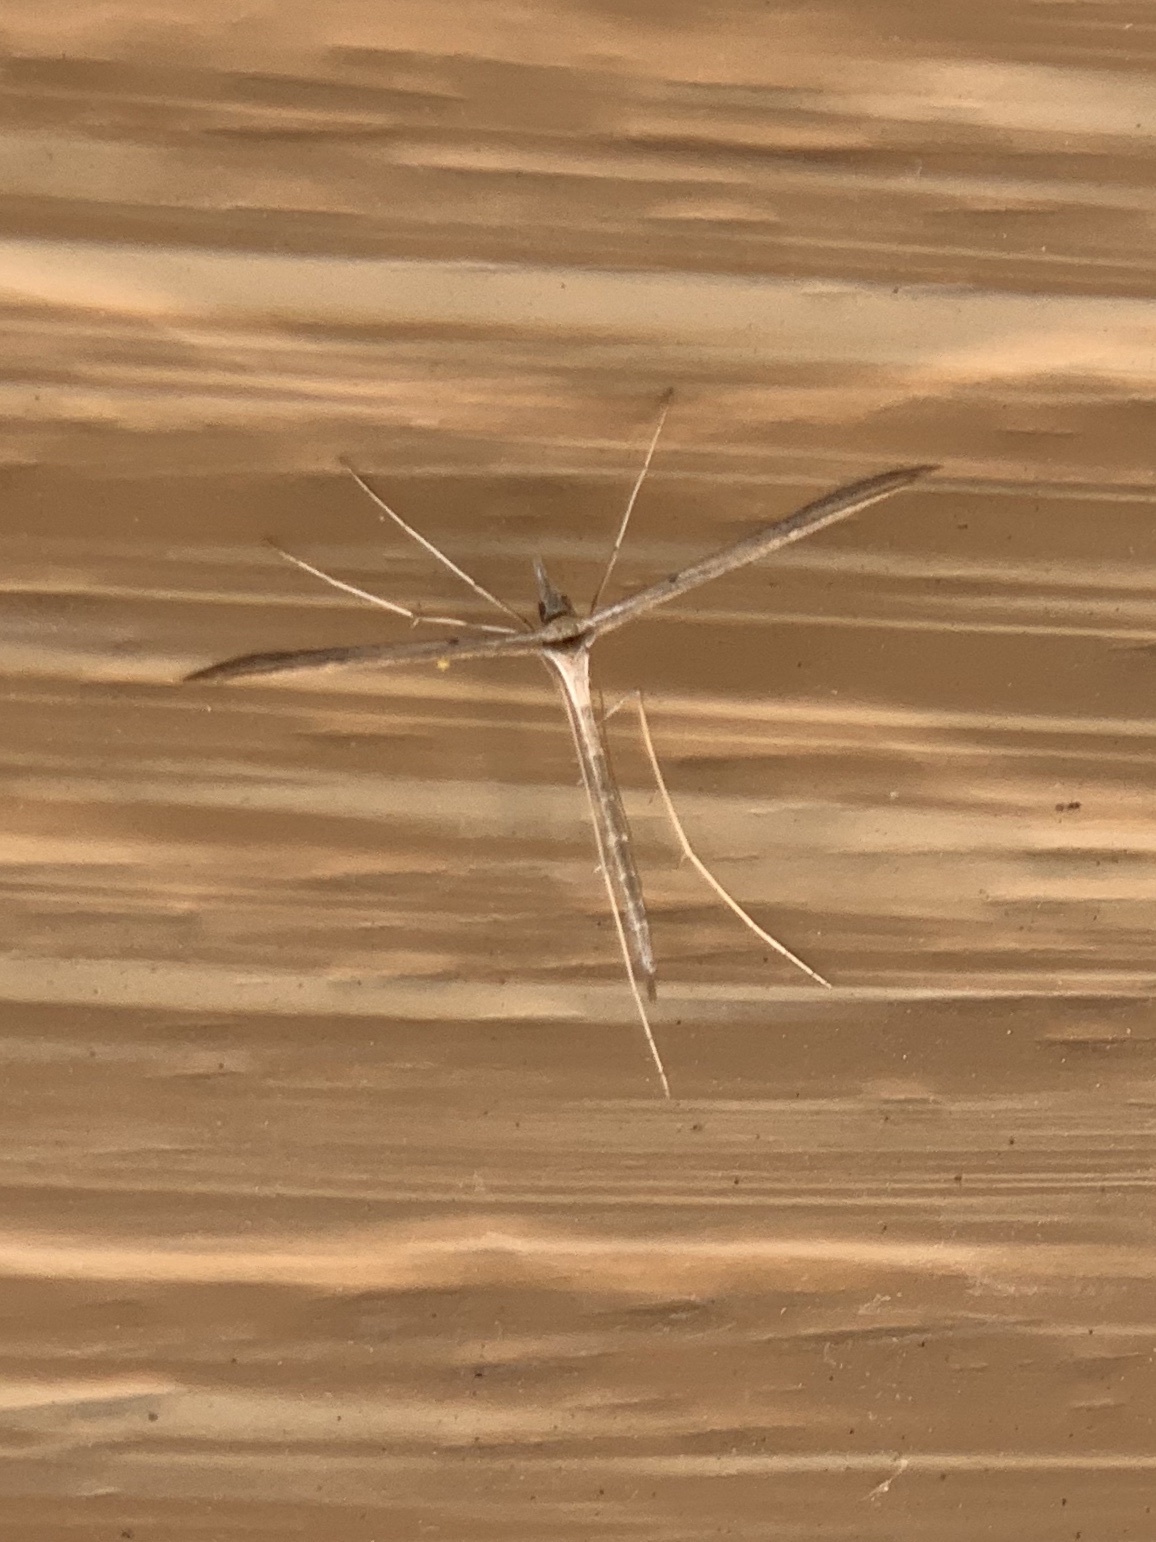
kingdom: Animalia
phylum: Arthropoda
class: Insecta
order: Lepidoptera
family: Pterophoridae
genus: Hellinsia
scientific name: Hellinsia longifrons
